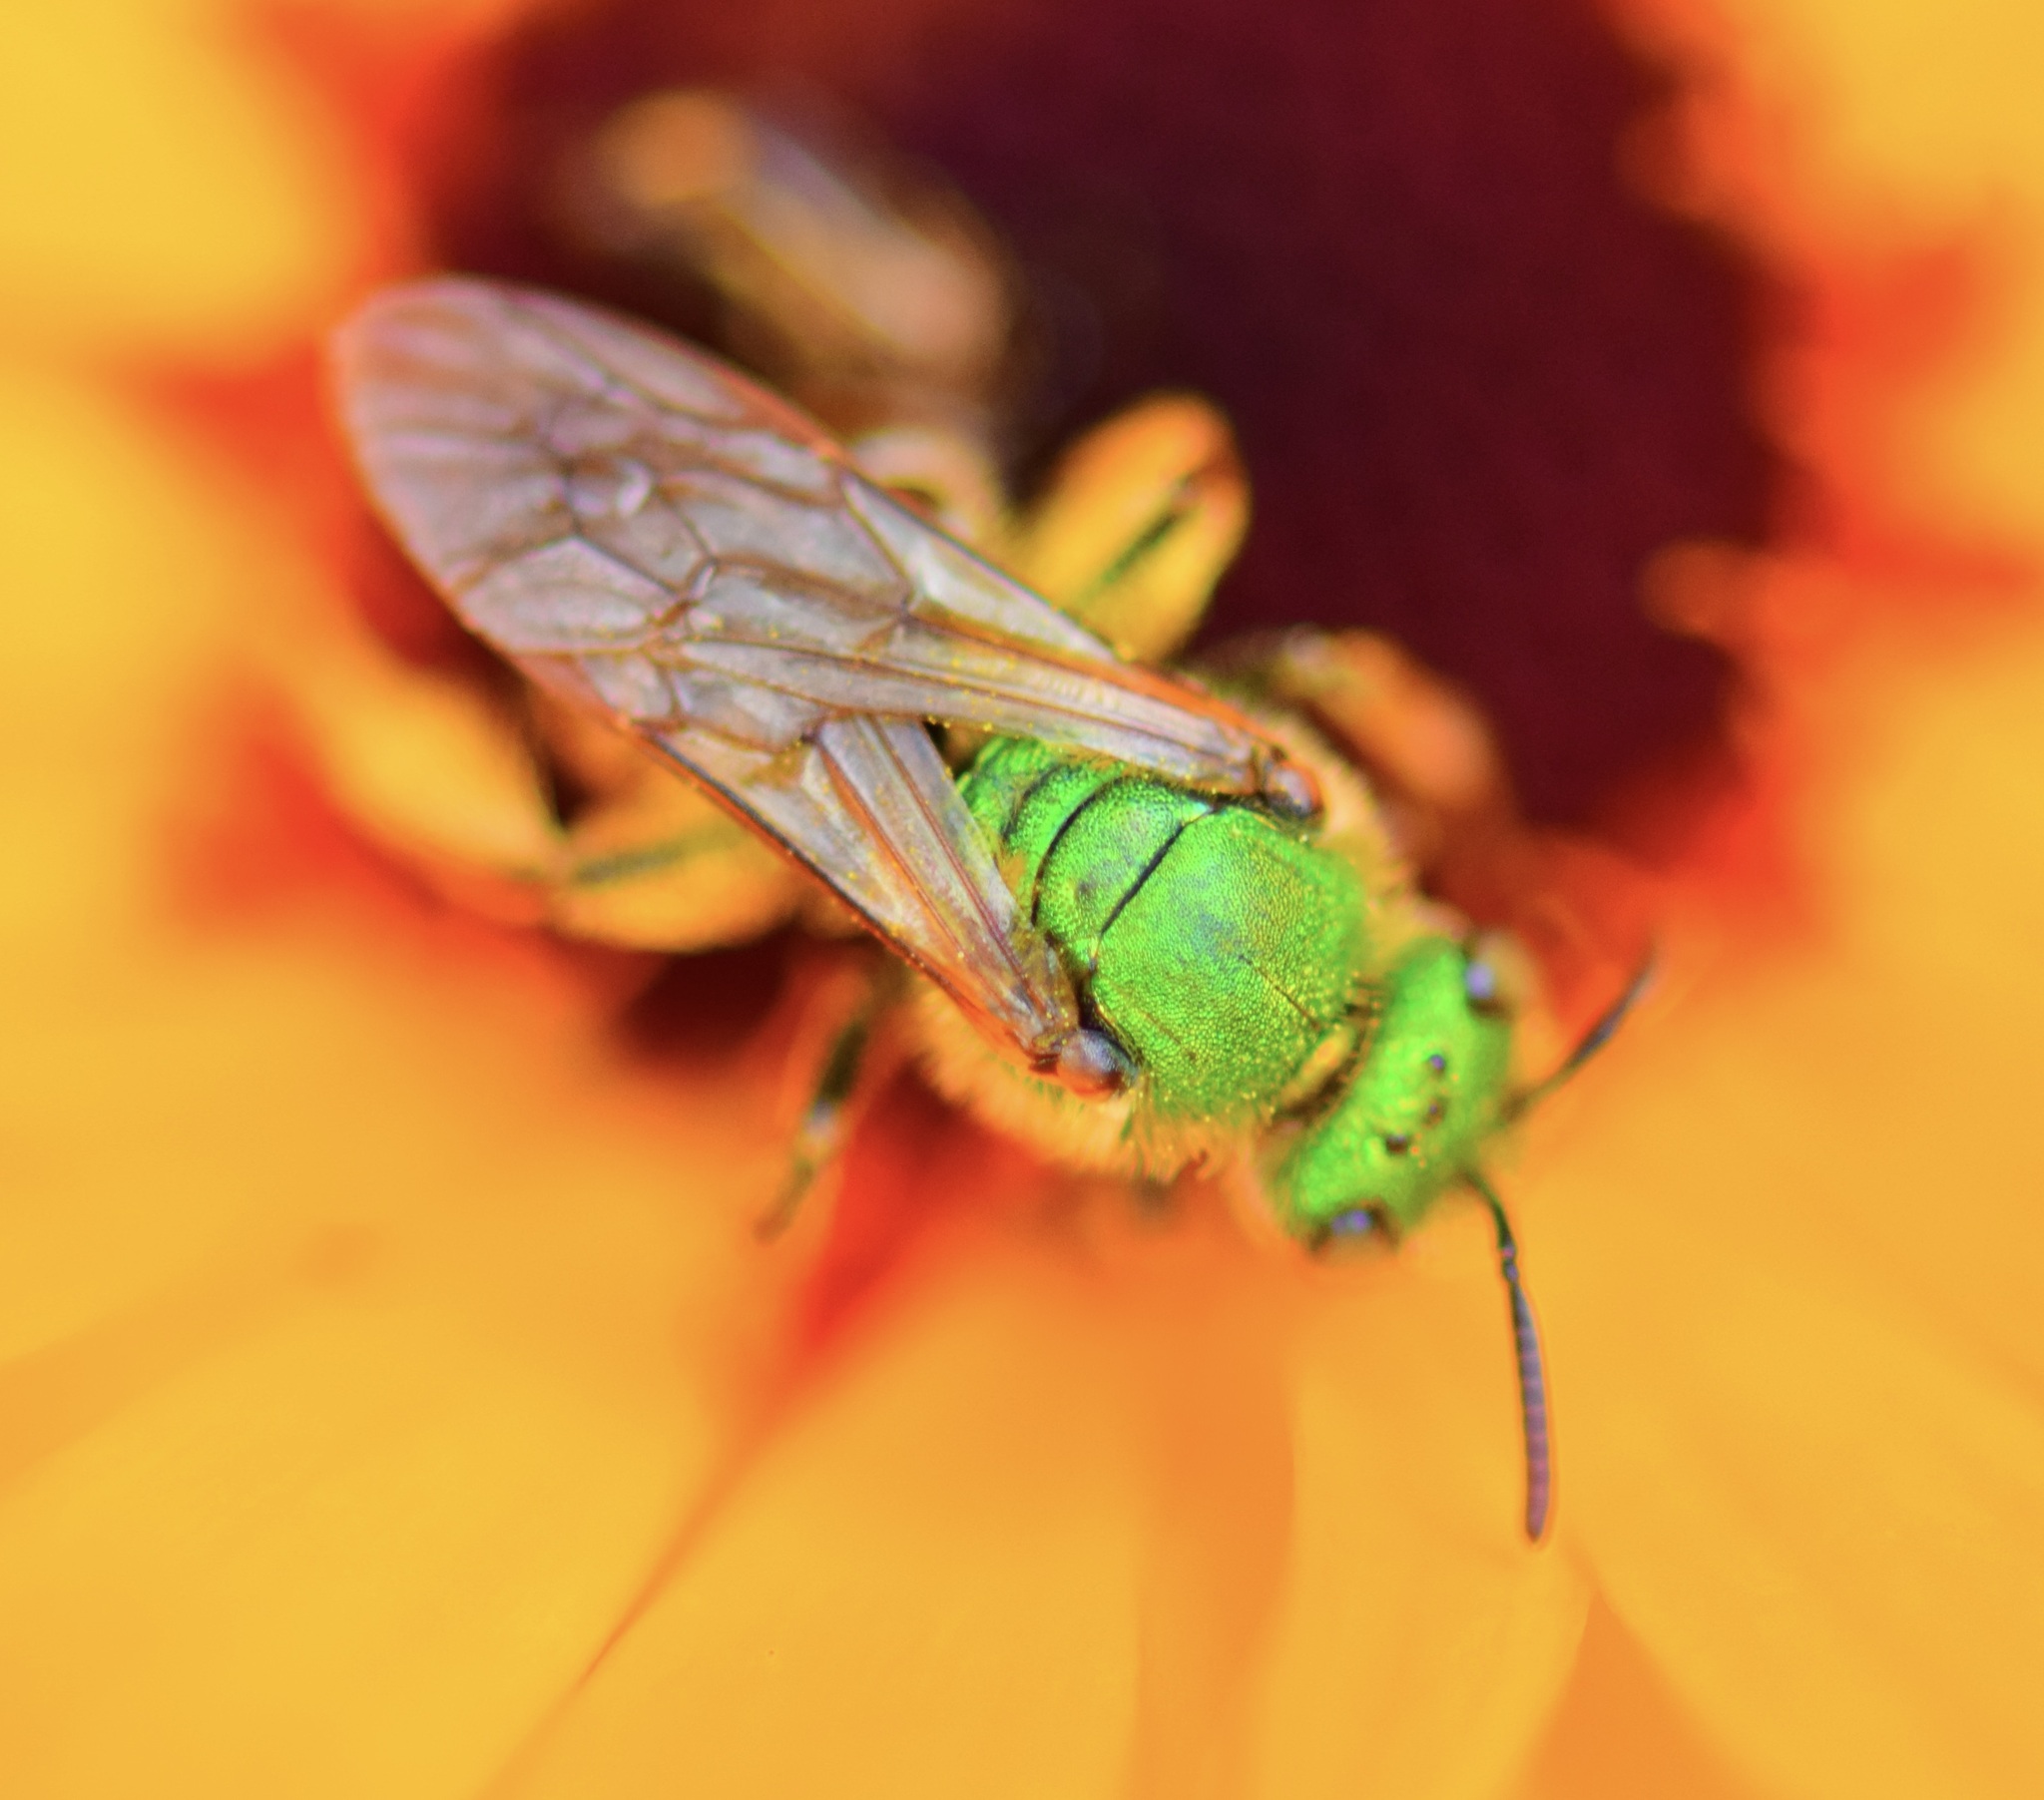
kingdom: Animalia
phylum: Arthropoda
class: Insecta
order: Hymenoptera
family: Halictidae
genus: Agapostemon
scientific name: Agapostemon virescens
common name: Bicolored striped sweat bee
